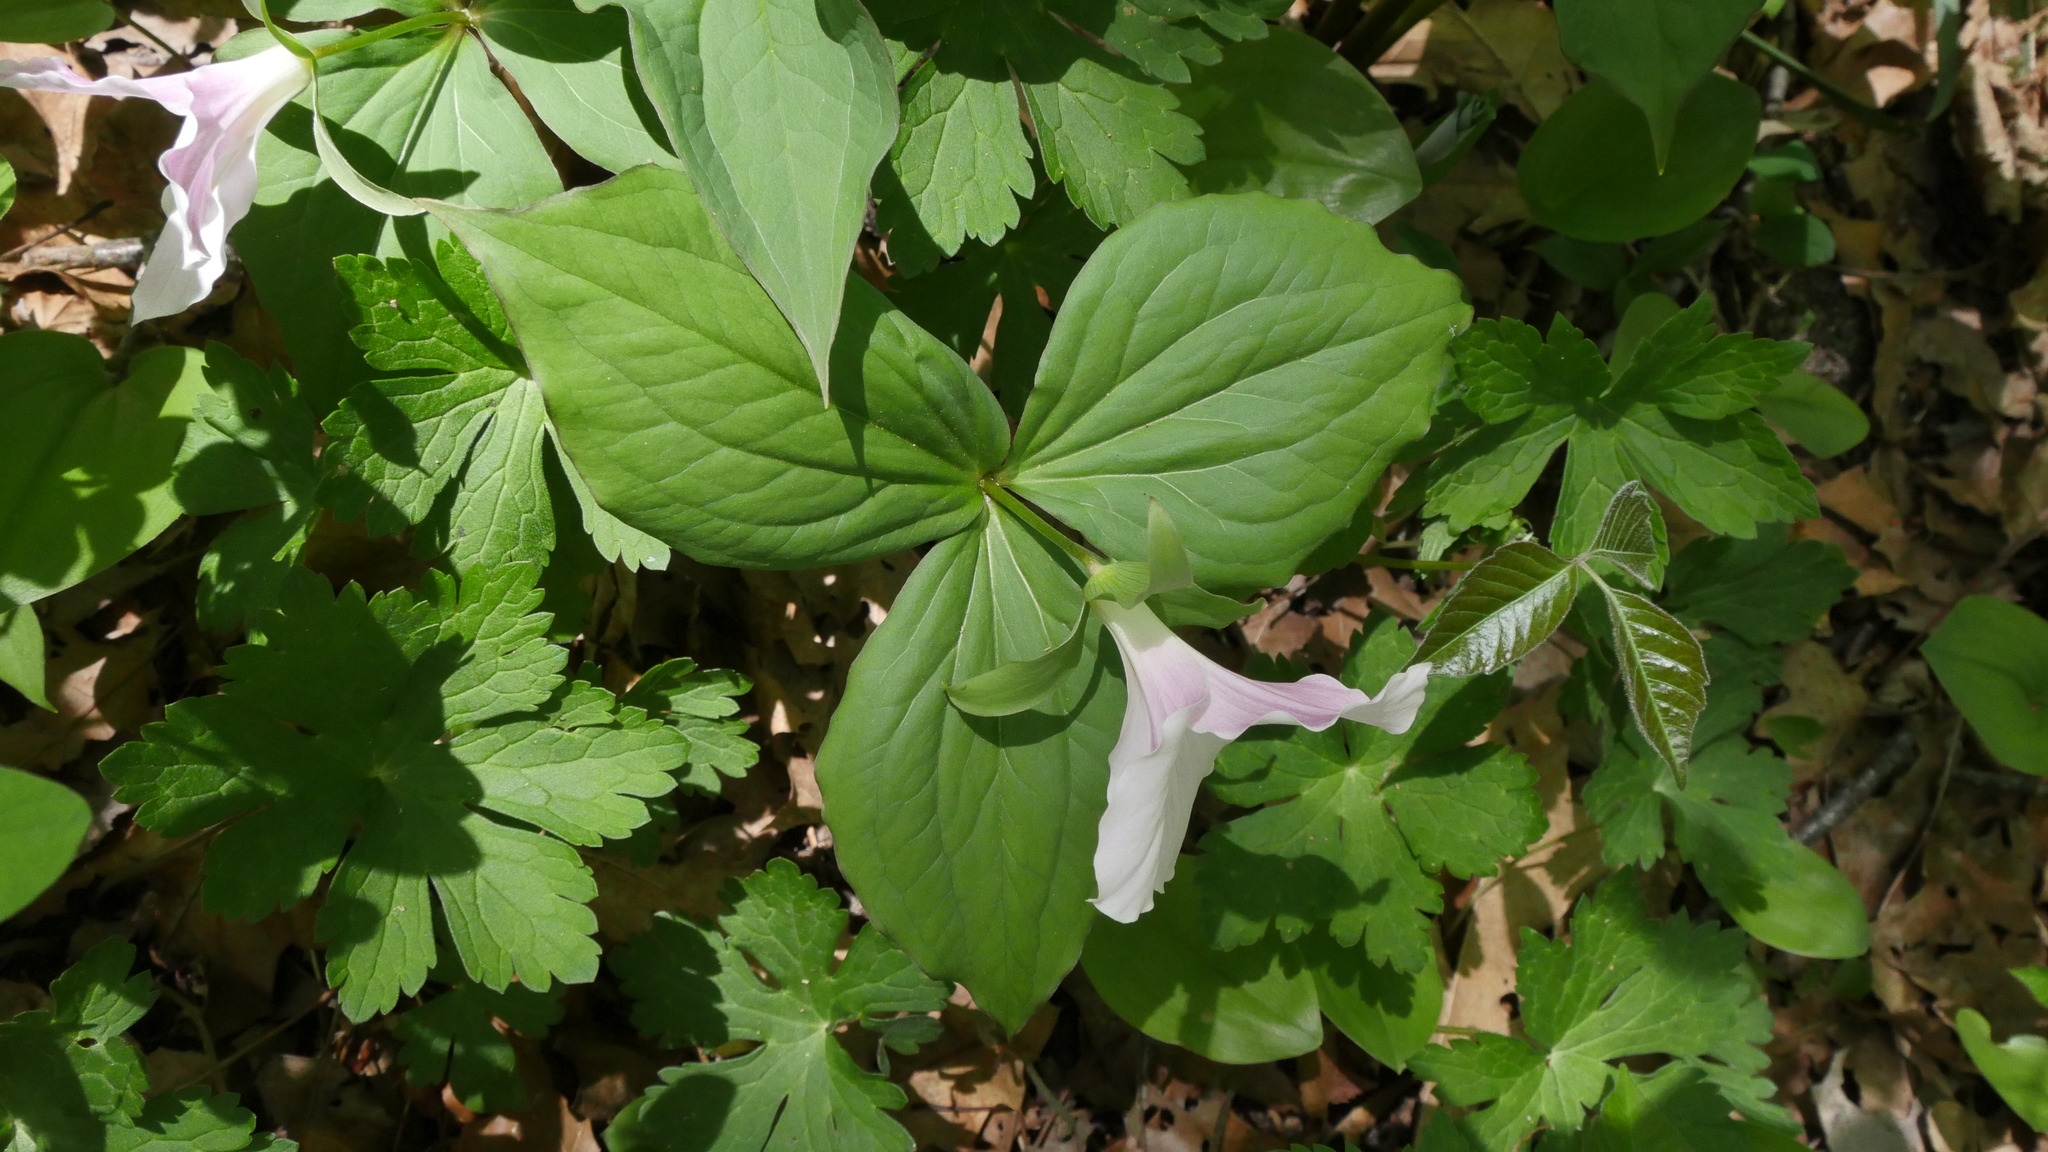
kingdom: Plantae
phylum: Tracheophyta
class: Liliopsida
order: Liliales
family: Melanthiaceae
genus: Trillium
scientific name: Trillium grandiflorum
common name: Great white trillium
